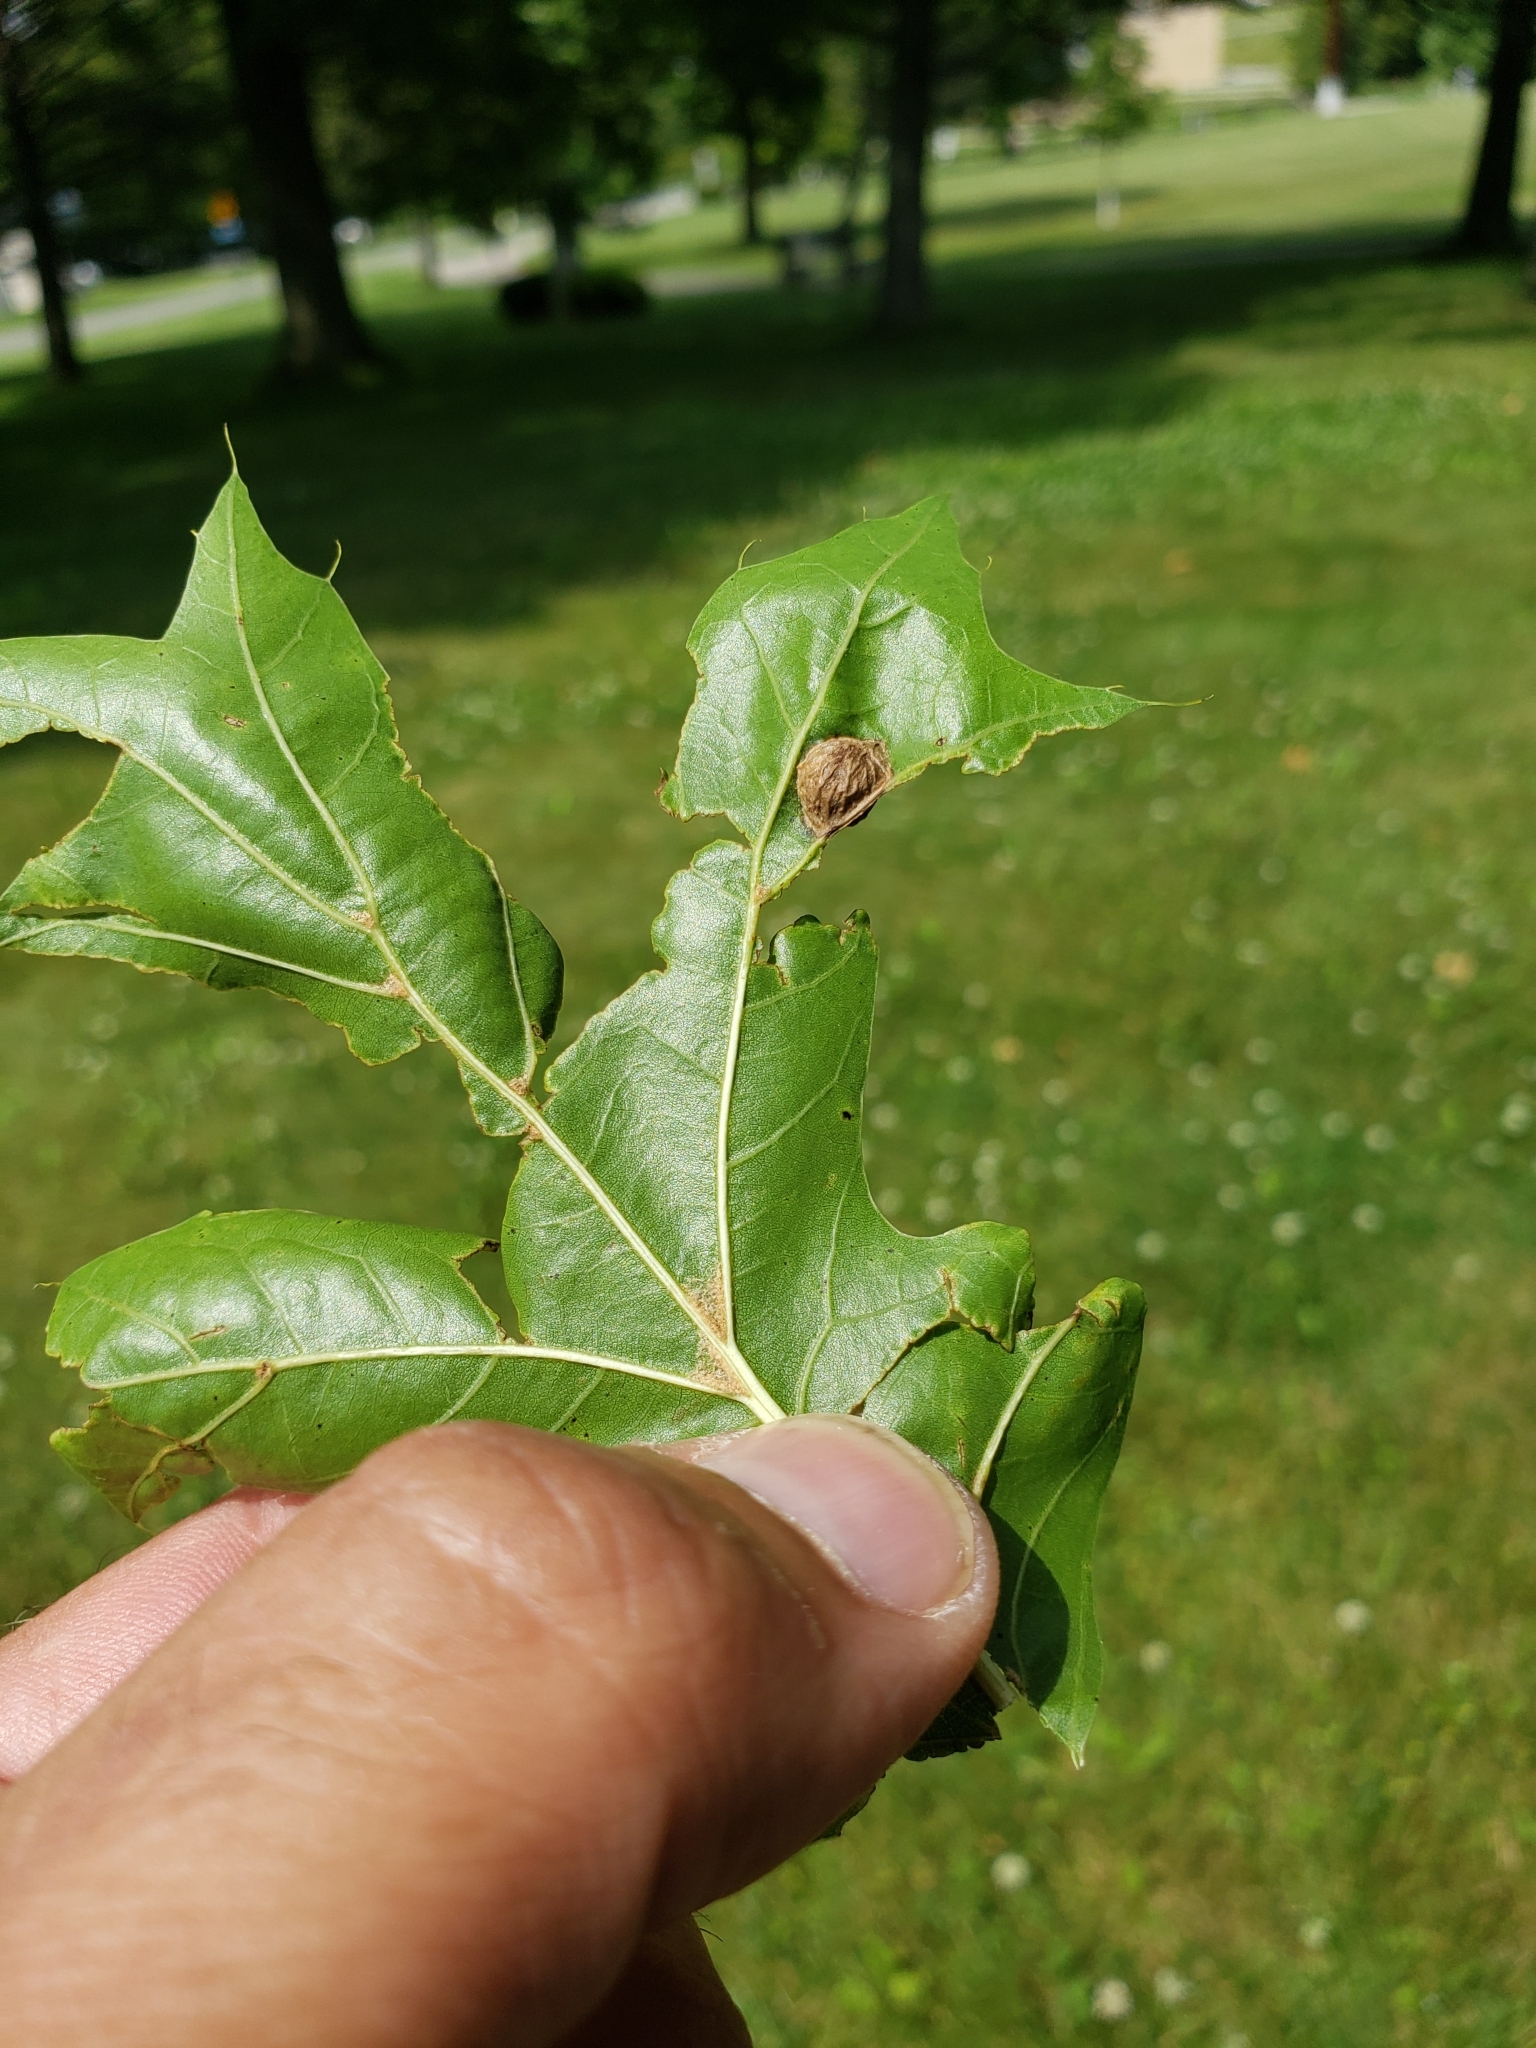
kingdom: Animalia
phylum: Arthropoda
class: Insecta
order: Hymenoptera
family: Cynipidae
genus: Dryocosmus
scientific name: Dryocosmus
